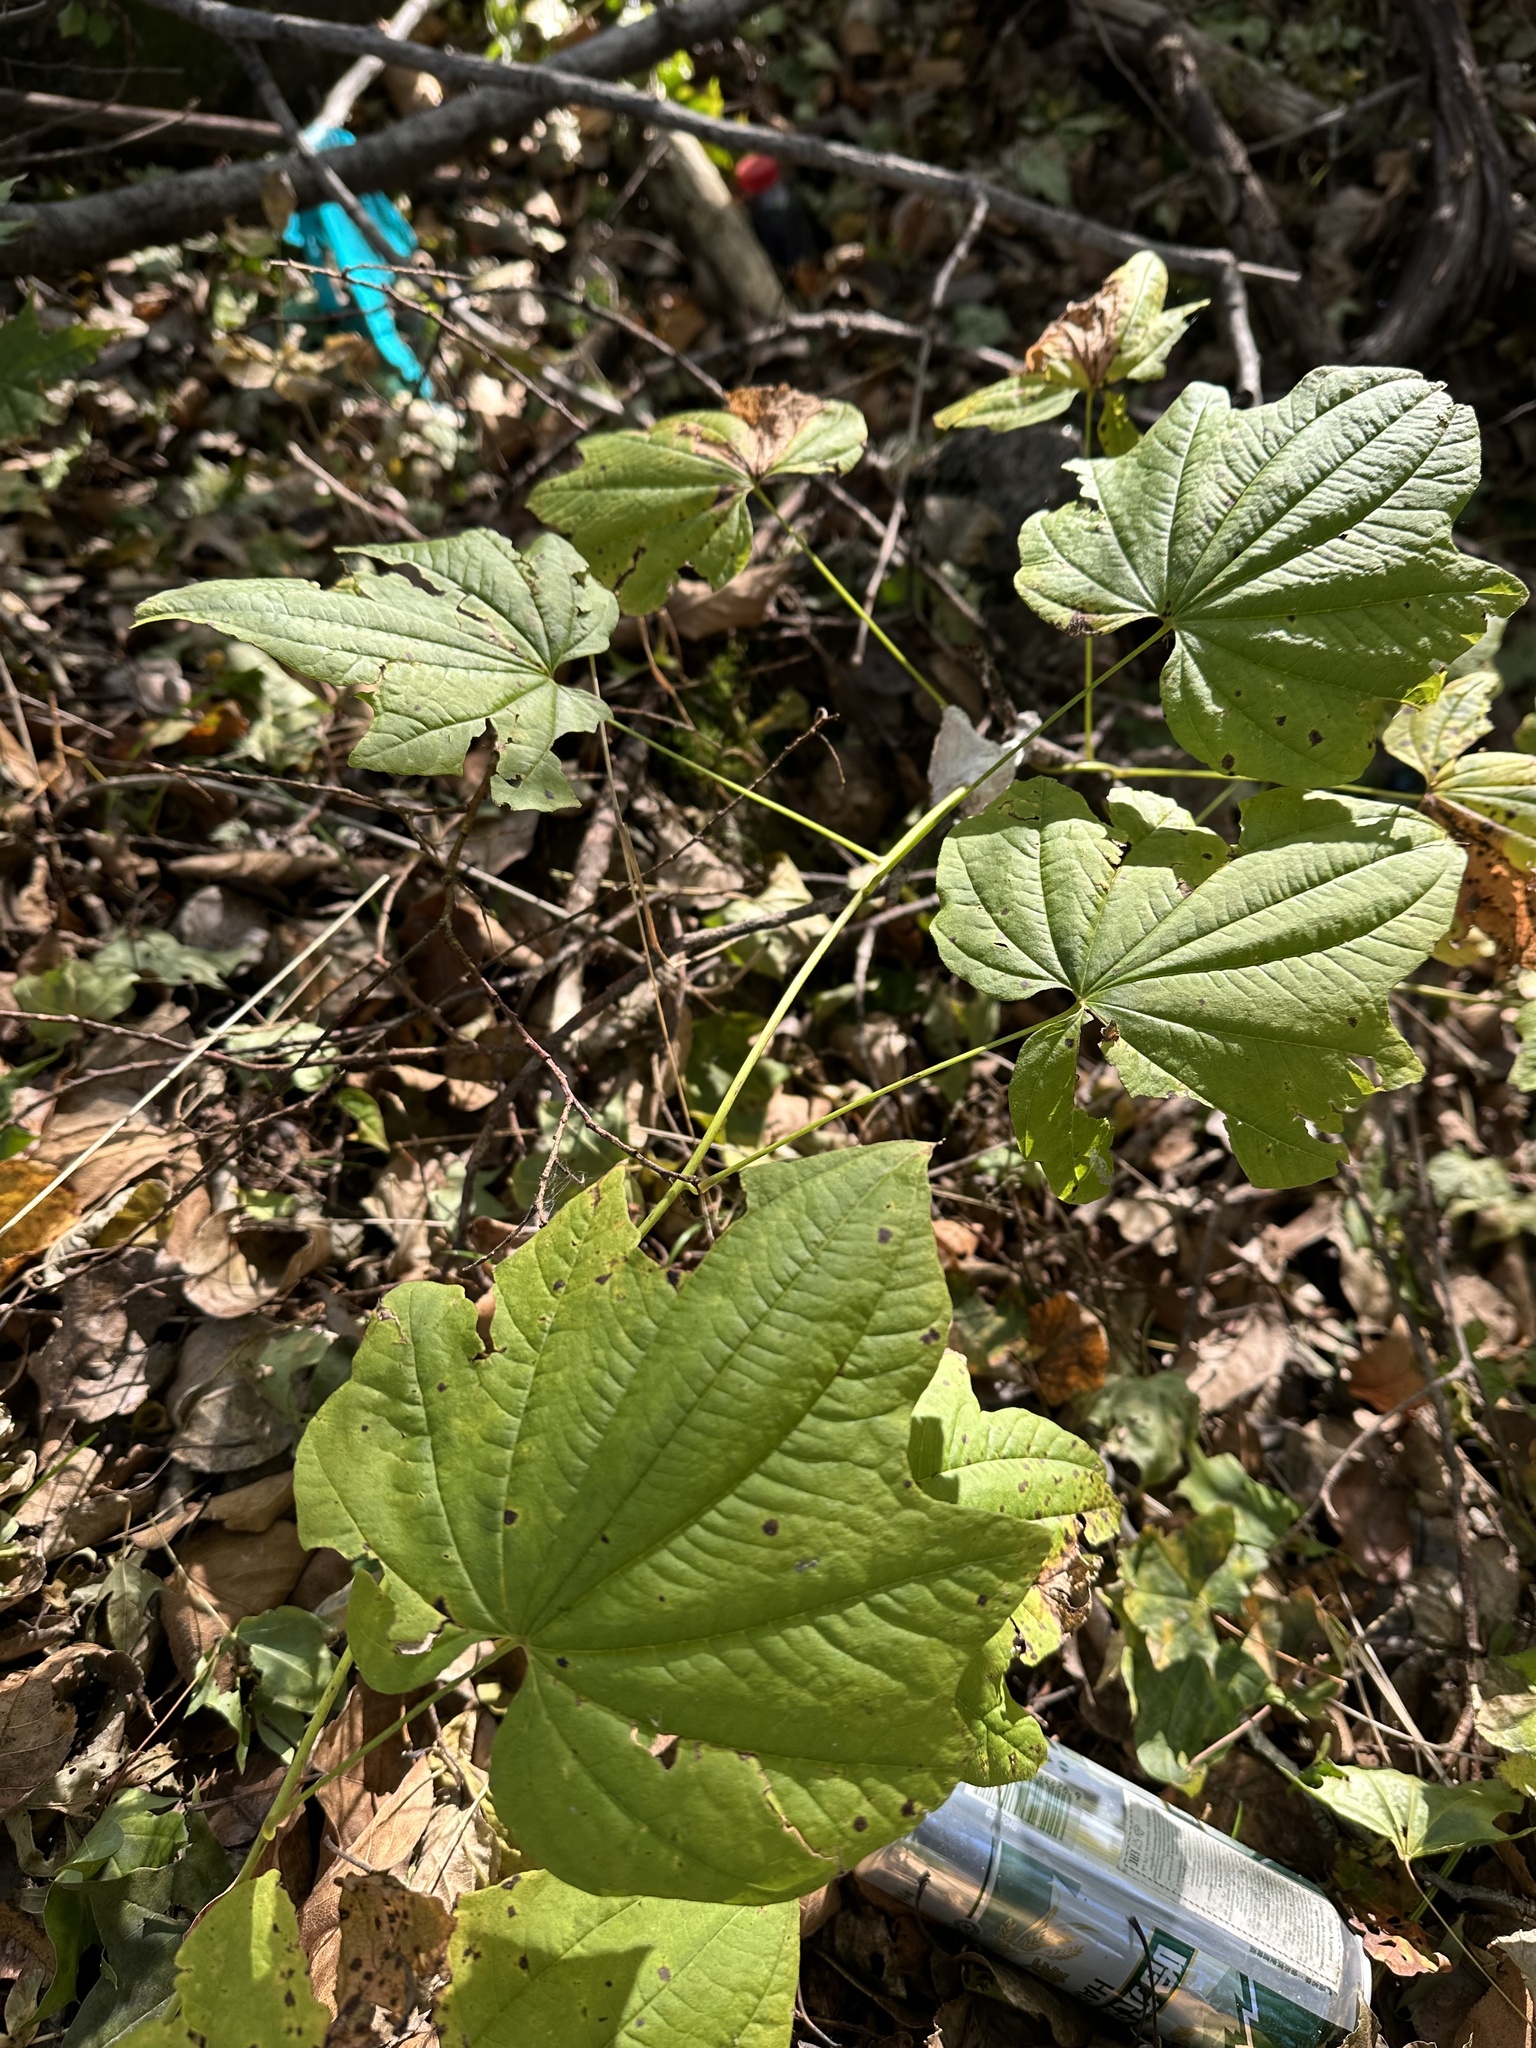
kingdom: Plantae
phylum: Tracheophyta
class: Liliopsida
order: Dioscoreales
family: Dioscoreaceae
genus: Dioscorea
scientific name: Dioscorea nipponica
